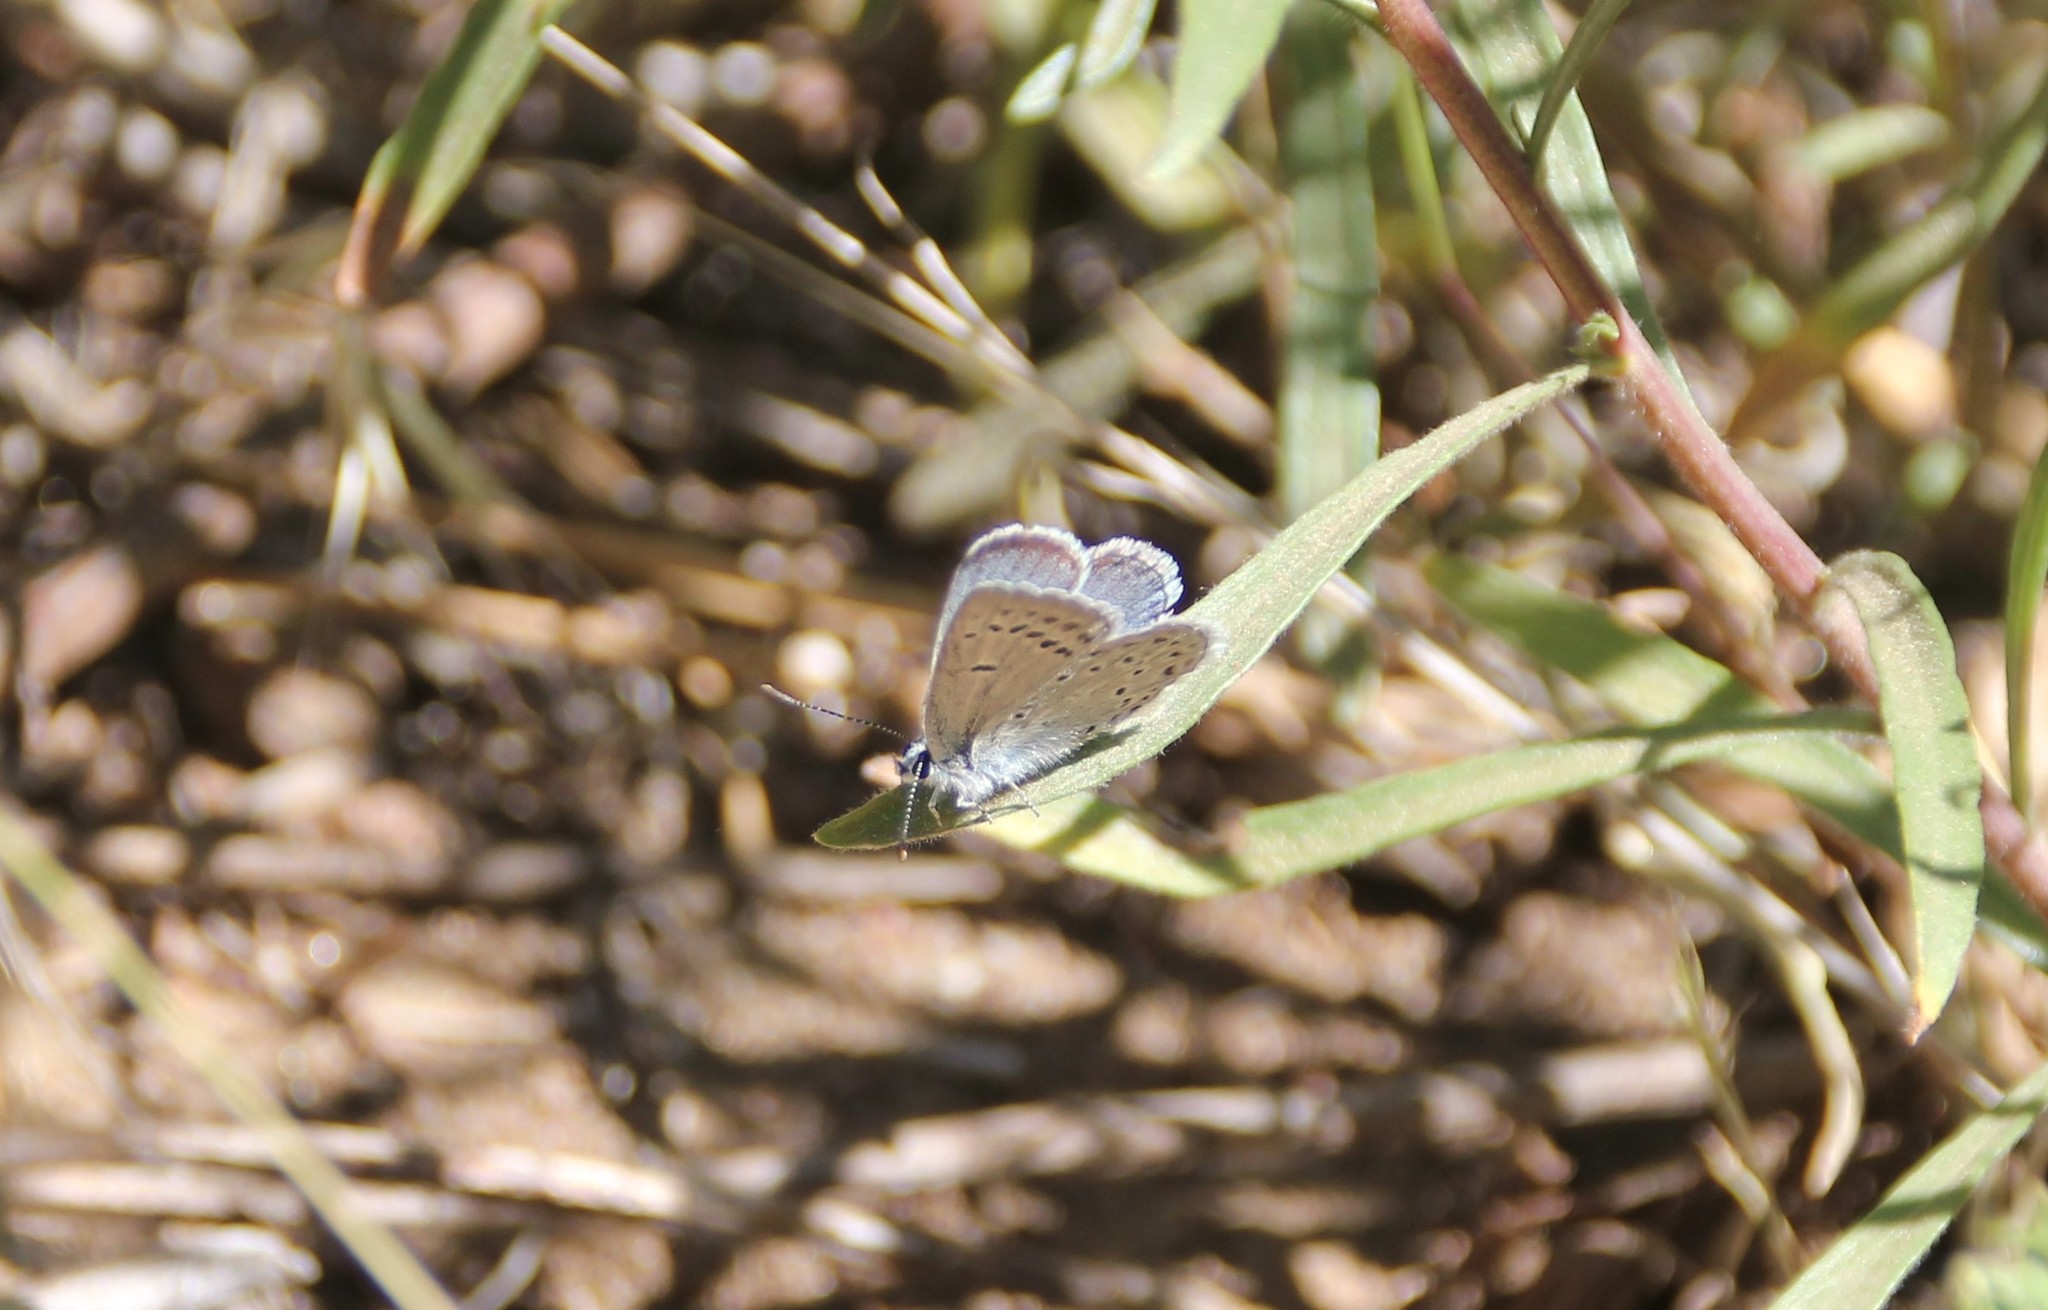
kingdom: Animalia
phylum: Arthropoda
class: Insecta
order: Lepidoptera
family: Lycaenidae
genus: Icaricia
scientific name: Icaricia icarioides
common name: Boisduval's blue
